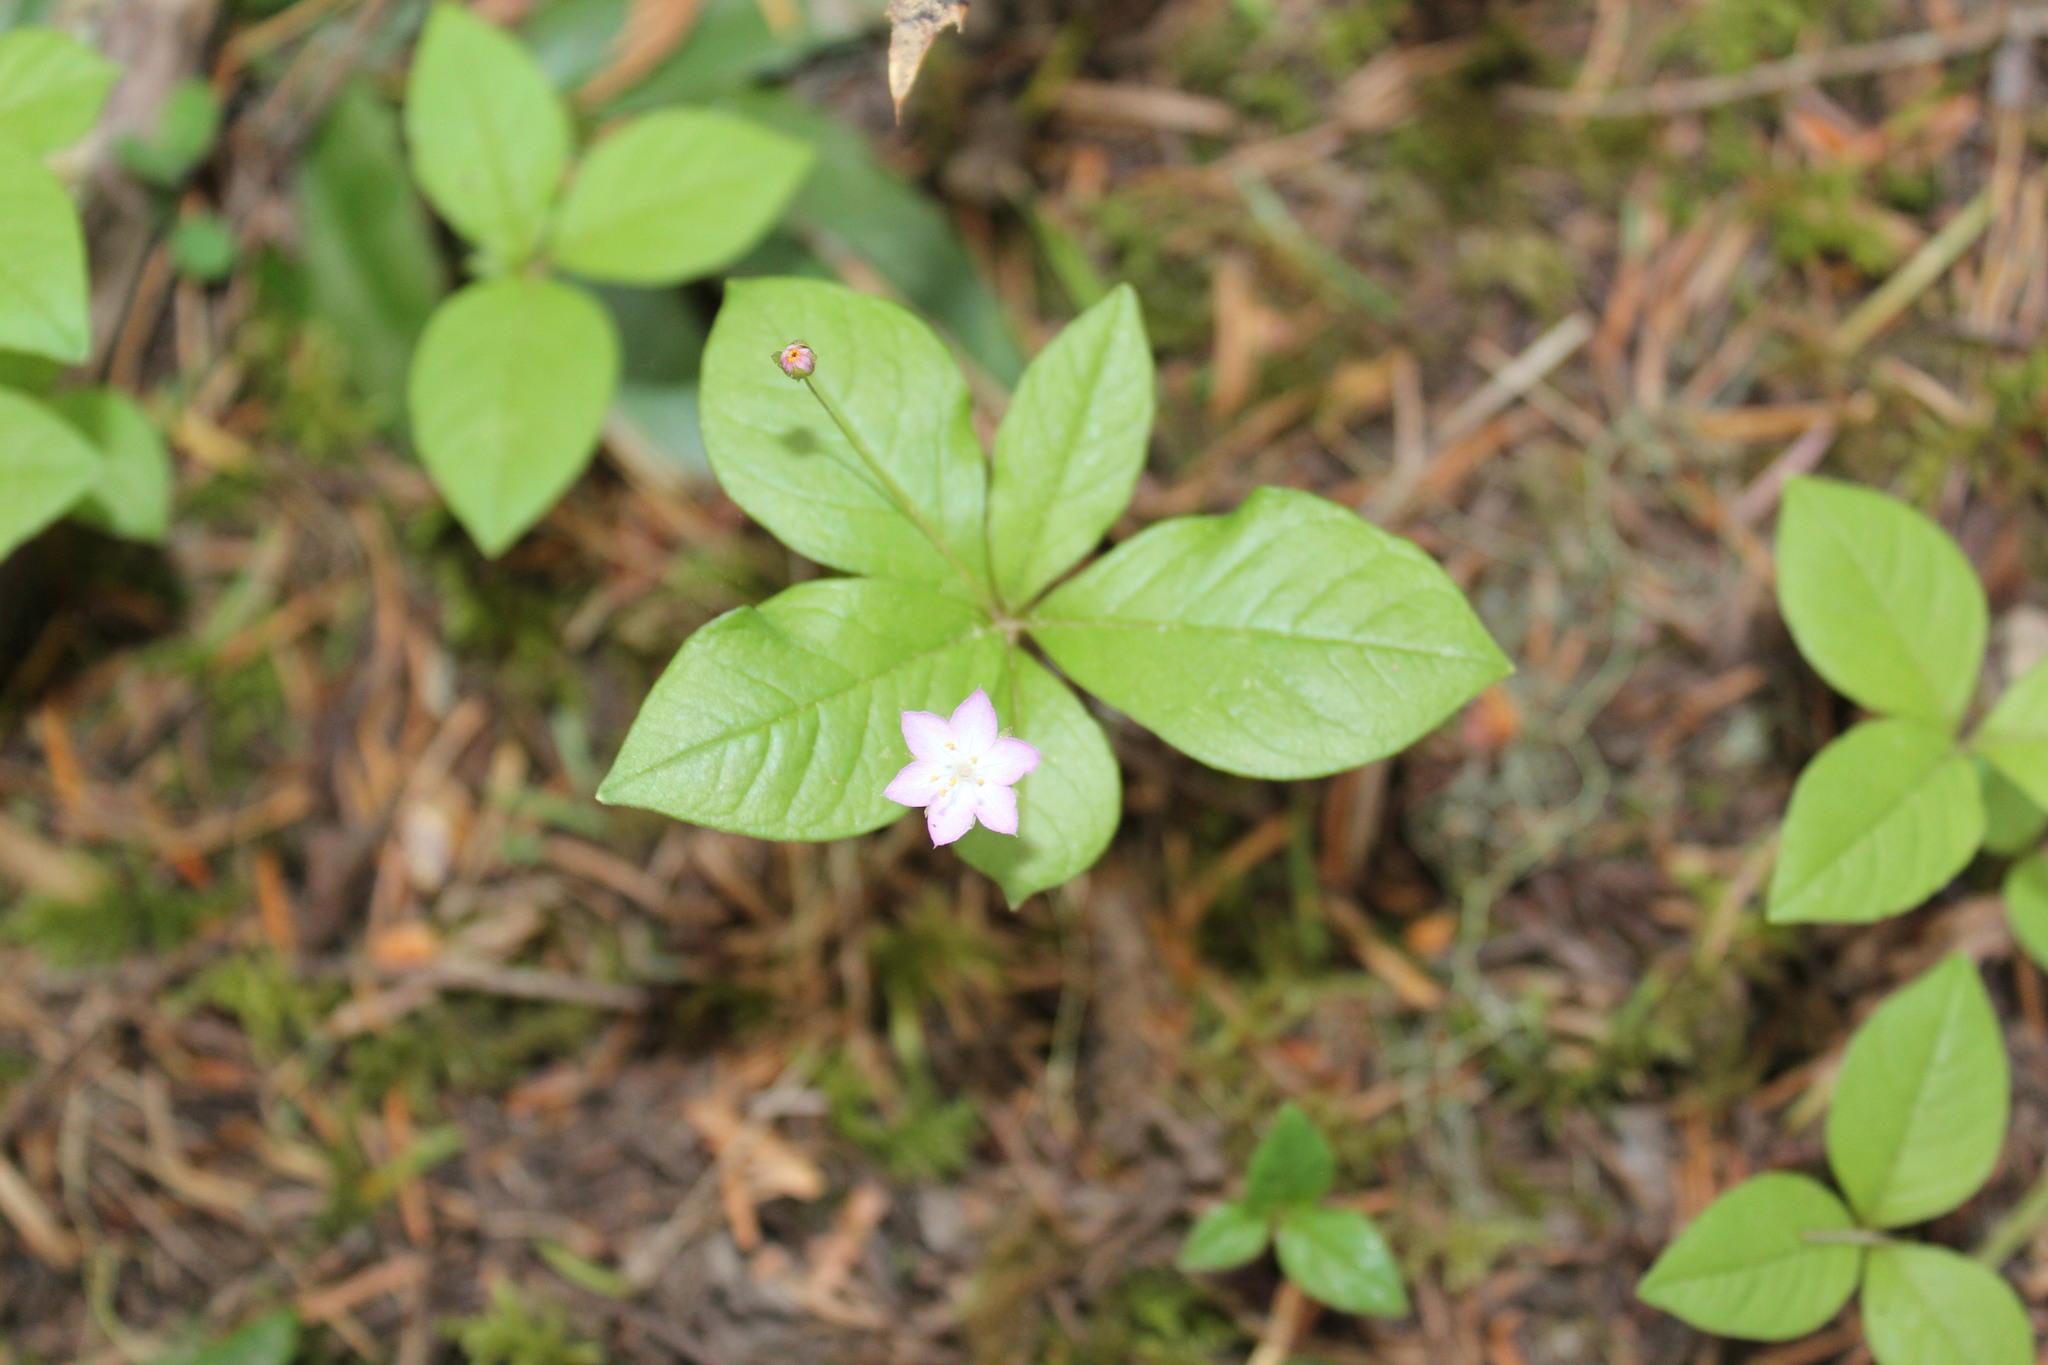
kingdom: Plantae
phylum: Tracheophyta
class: Magnoliopsida
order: Ericales
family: Primulaceae
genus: Lysimachia
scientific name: Lysimachia latifolia
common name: Pacific starflower
